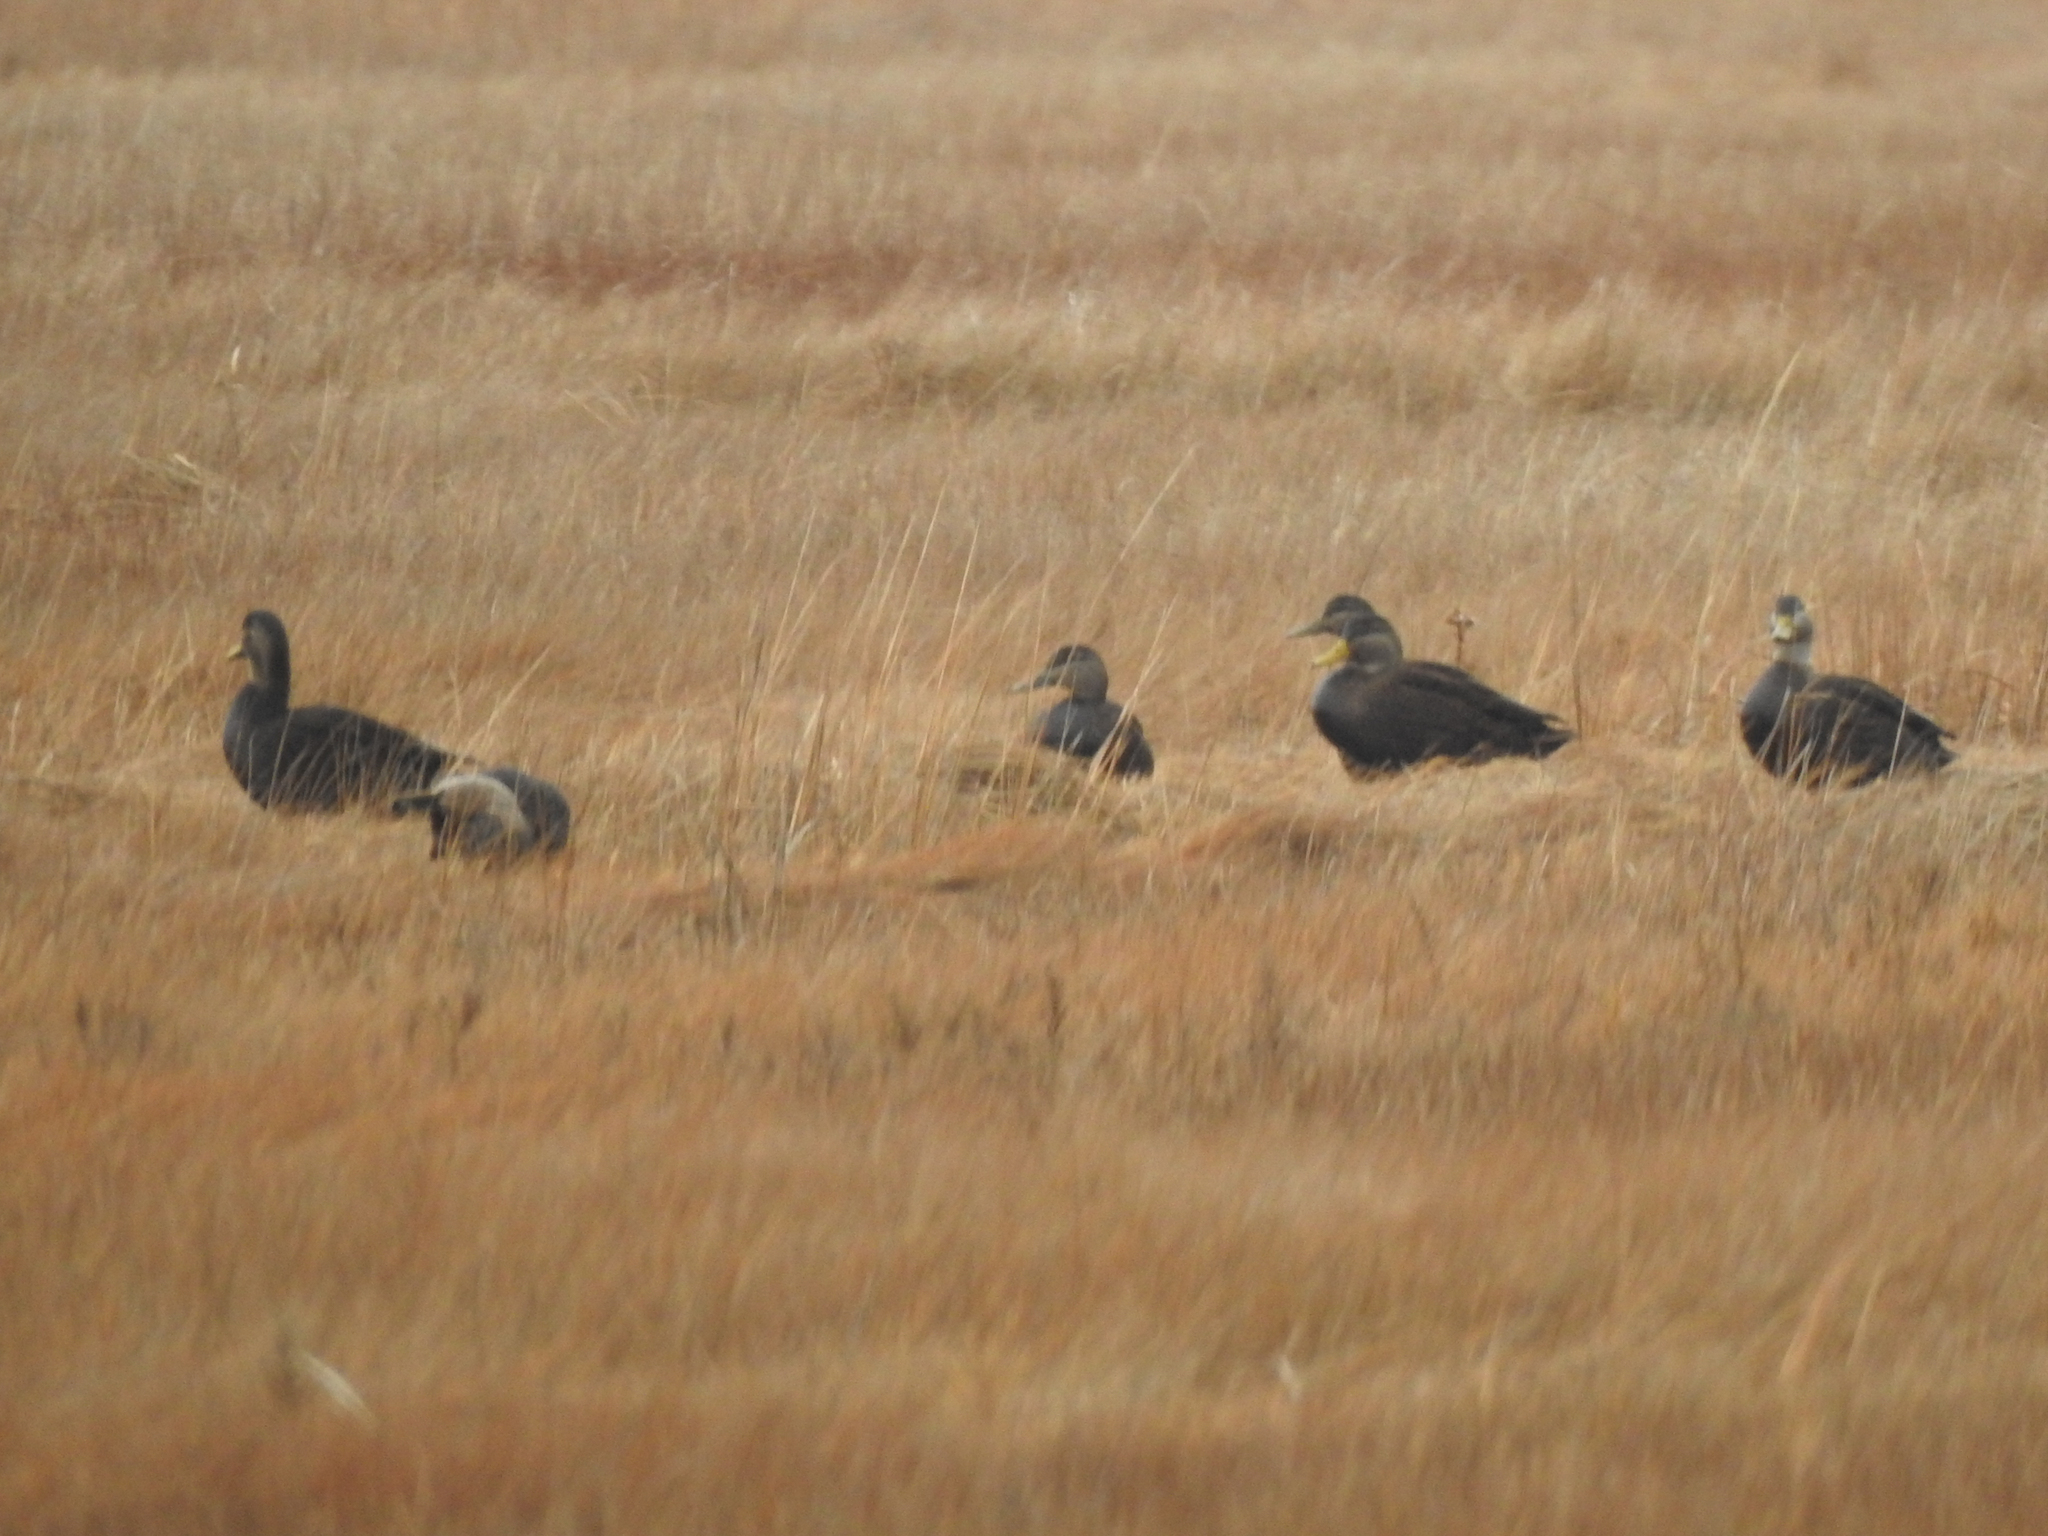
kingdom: Animalia
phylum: Chordata
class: Aves
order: Anseriformes
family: Anatidae
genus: Anas
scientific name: Anas rubripes
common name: American black duck
